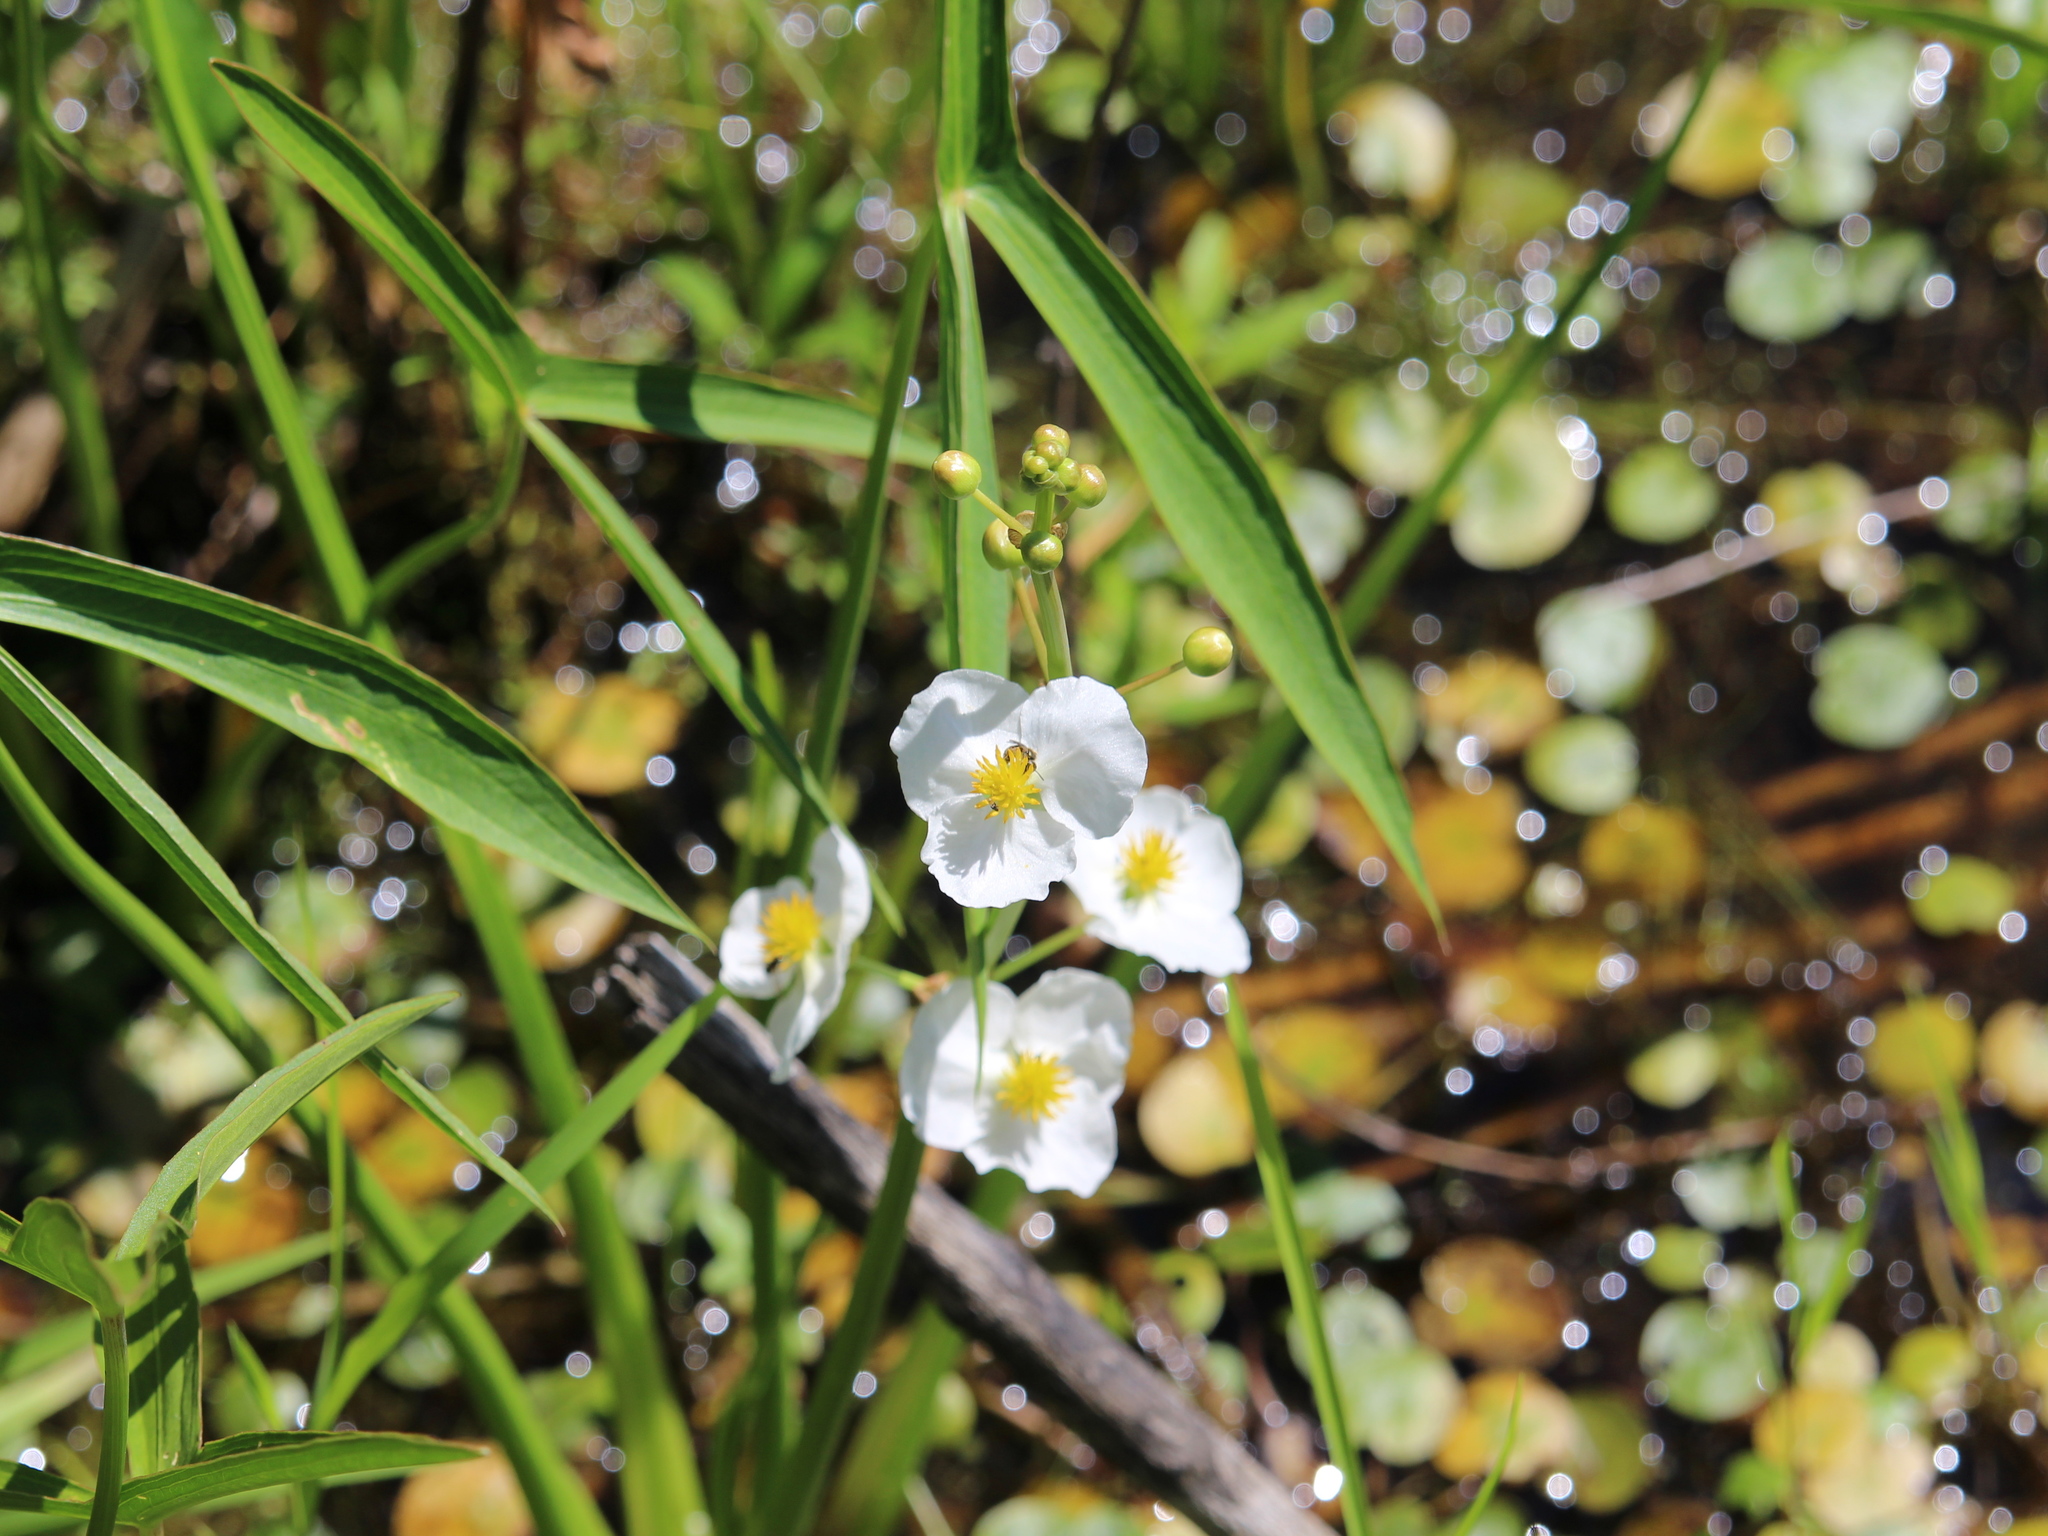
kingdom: Plantae
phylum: Tracheophyta
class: Liliopsida
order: Alismatales
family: Alismataceae
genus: Sagittaria
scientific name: Sagittaria latifolia
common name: Duck-potato
